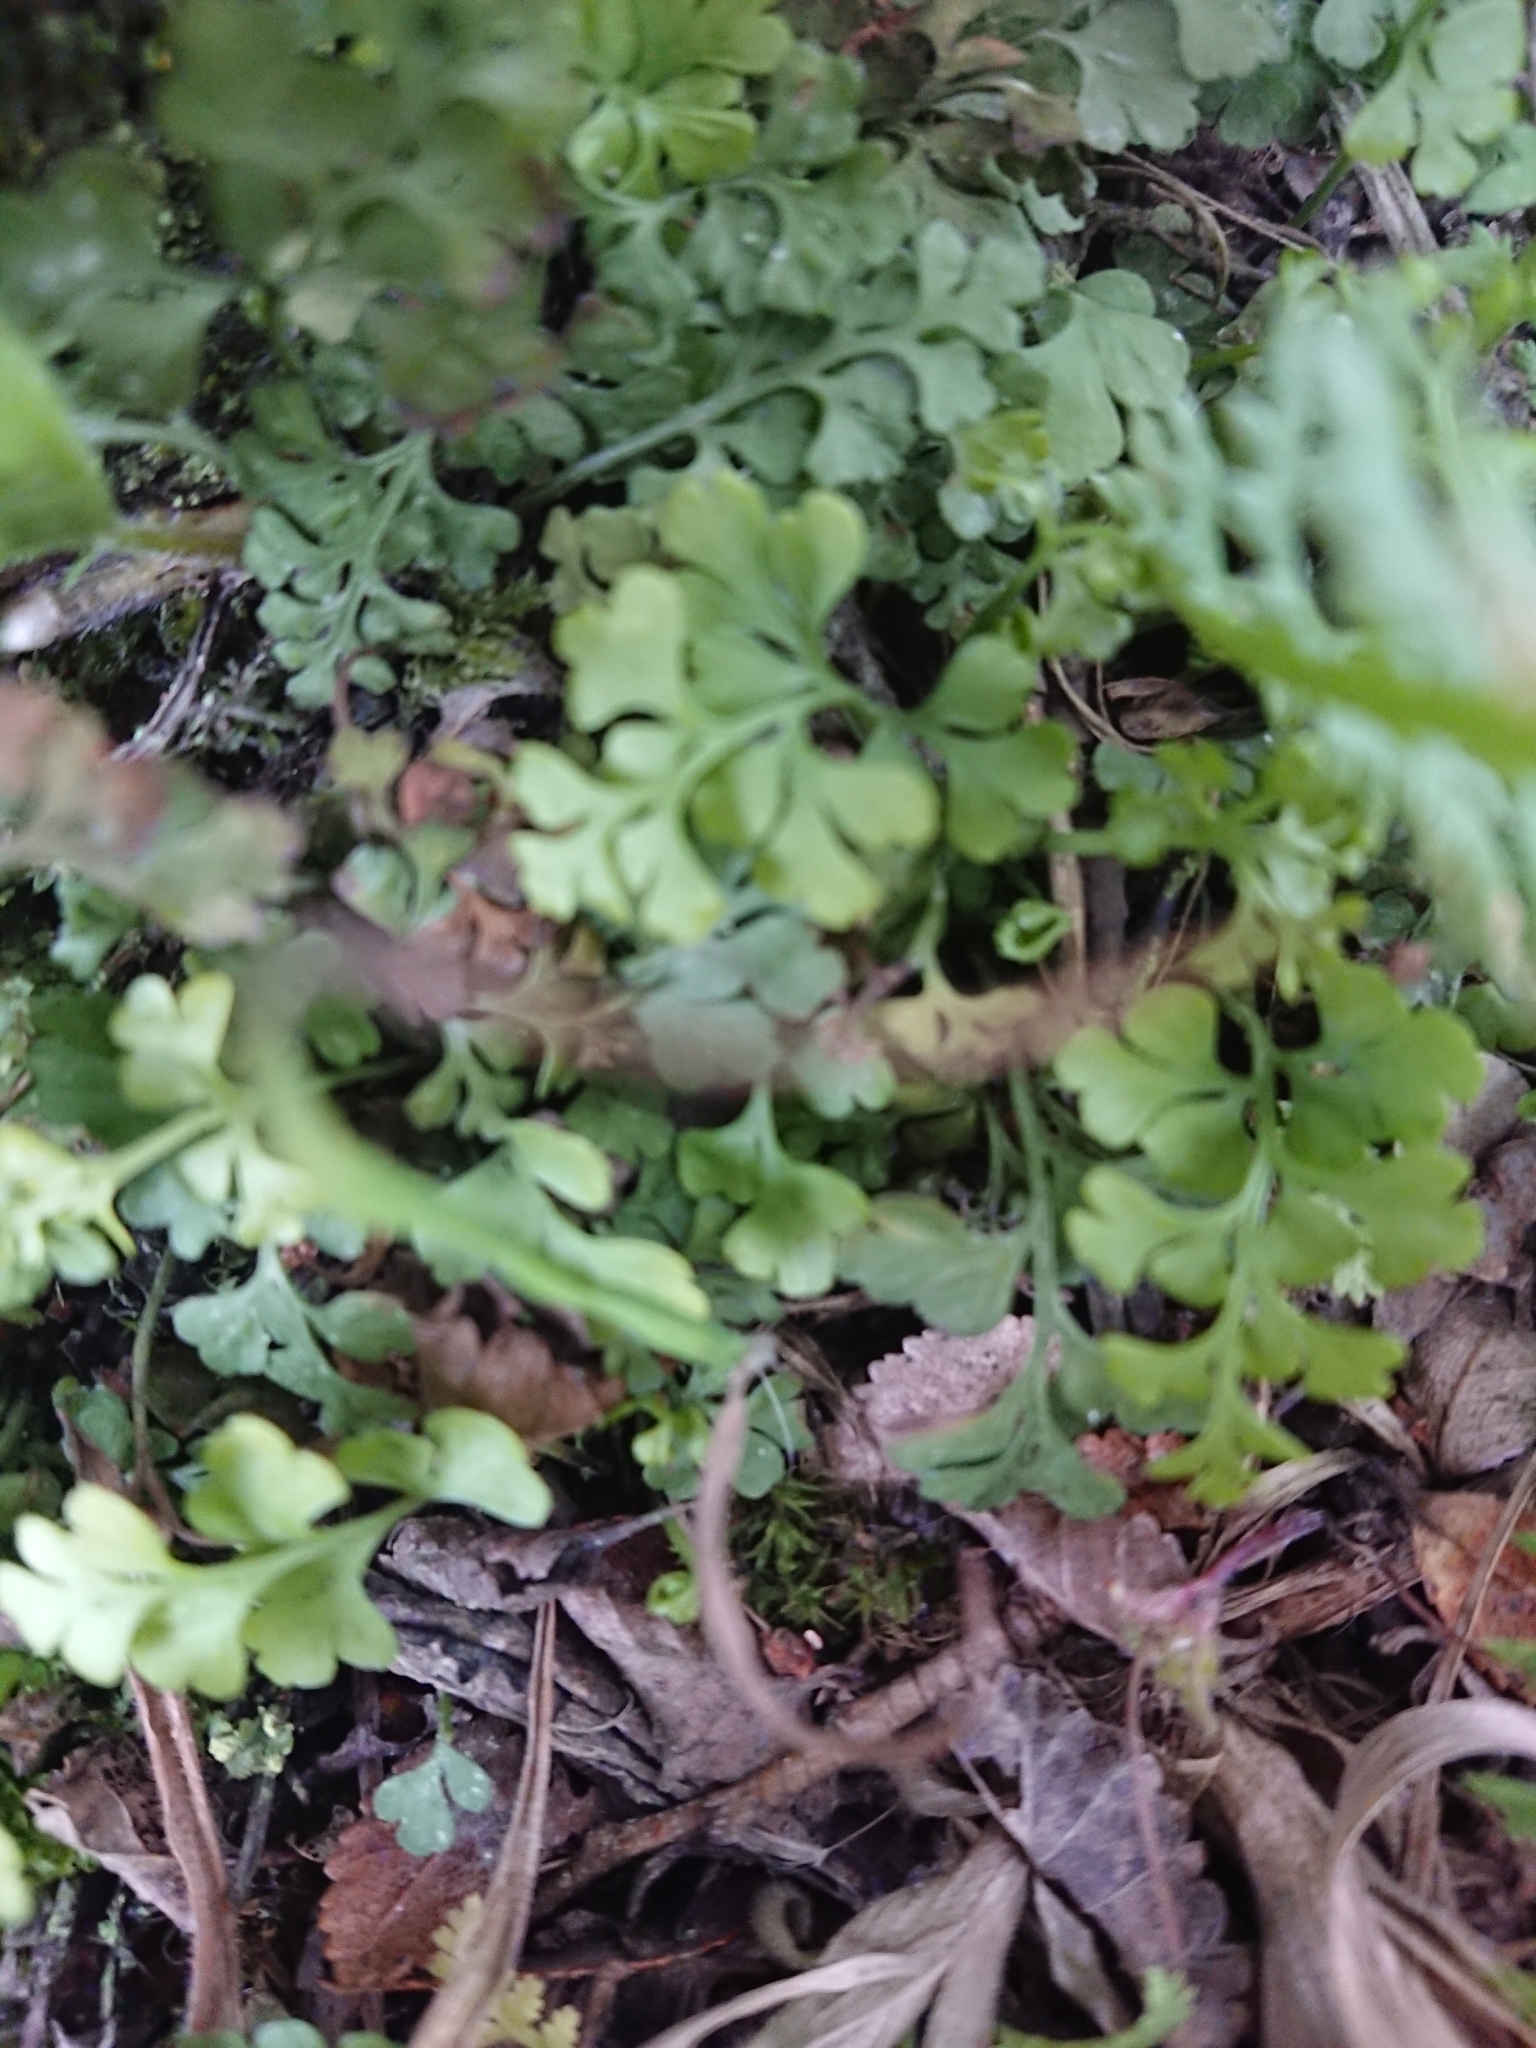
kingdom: Plantae
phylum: Tracheophyta
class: Polypodiopsida
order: Polypodiales
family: Aspleniaceae
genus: Asplenium
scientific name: Asplenium dareoides
